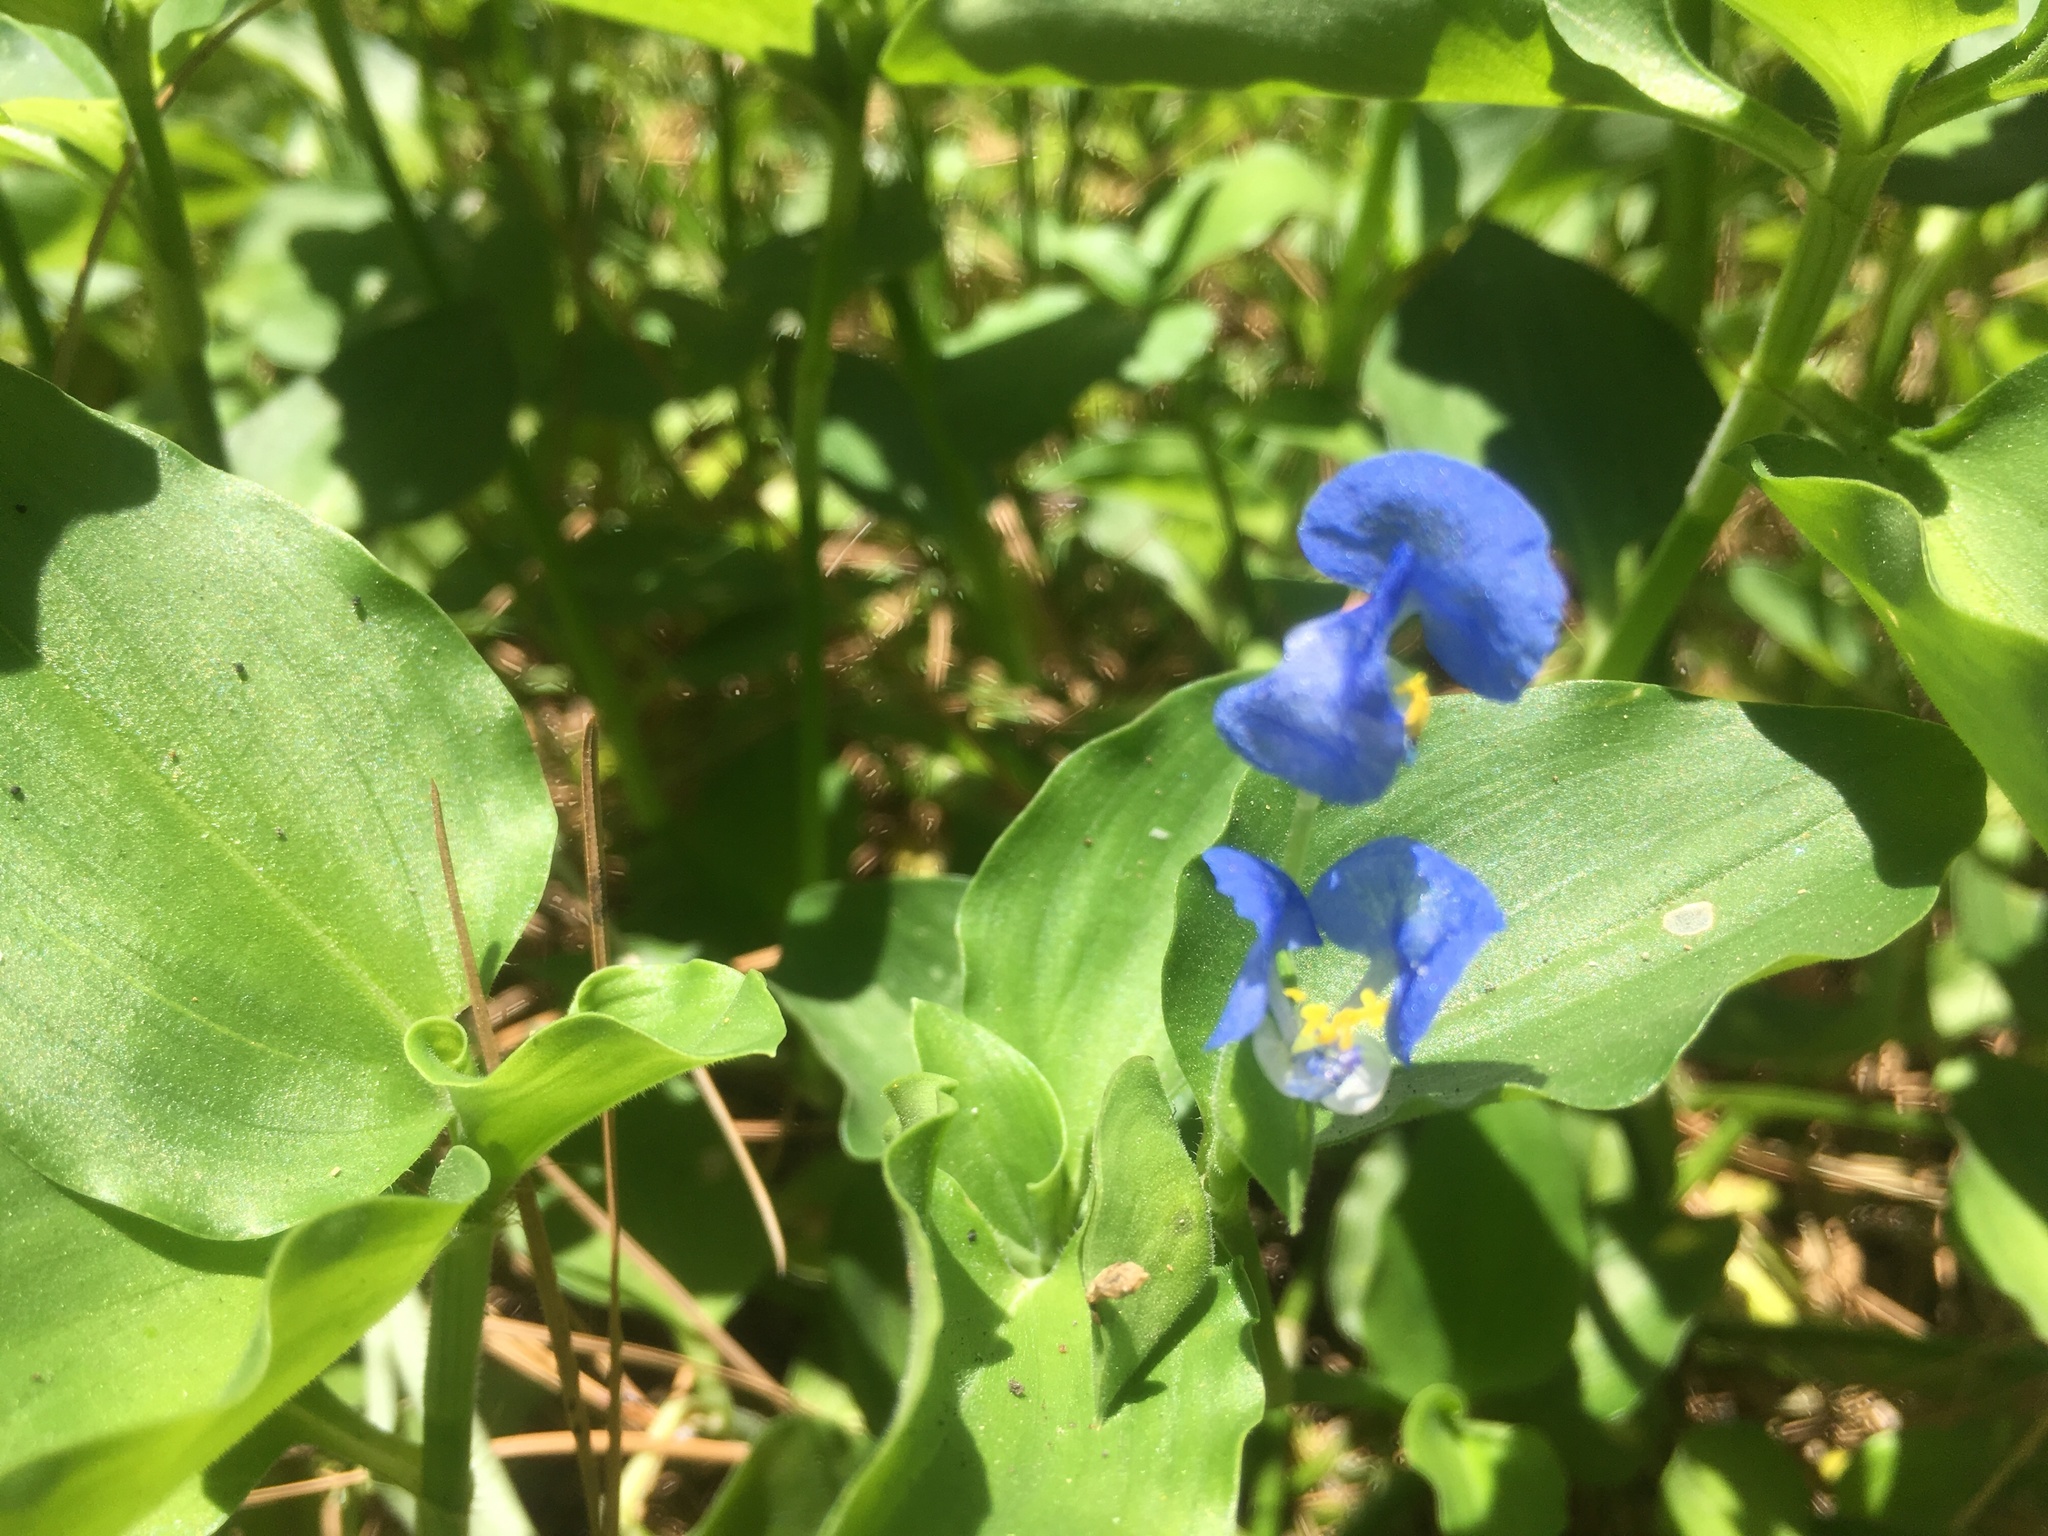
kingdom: Plantae
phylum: Tracheophyta
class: Liliopsida
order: Commelinales
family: Commelinaceae
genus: Commelina
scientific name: Commelina benghalensis
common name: Jio
